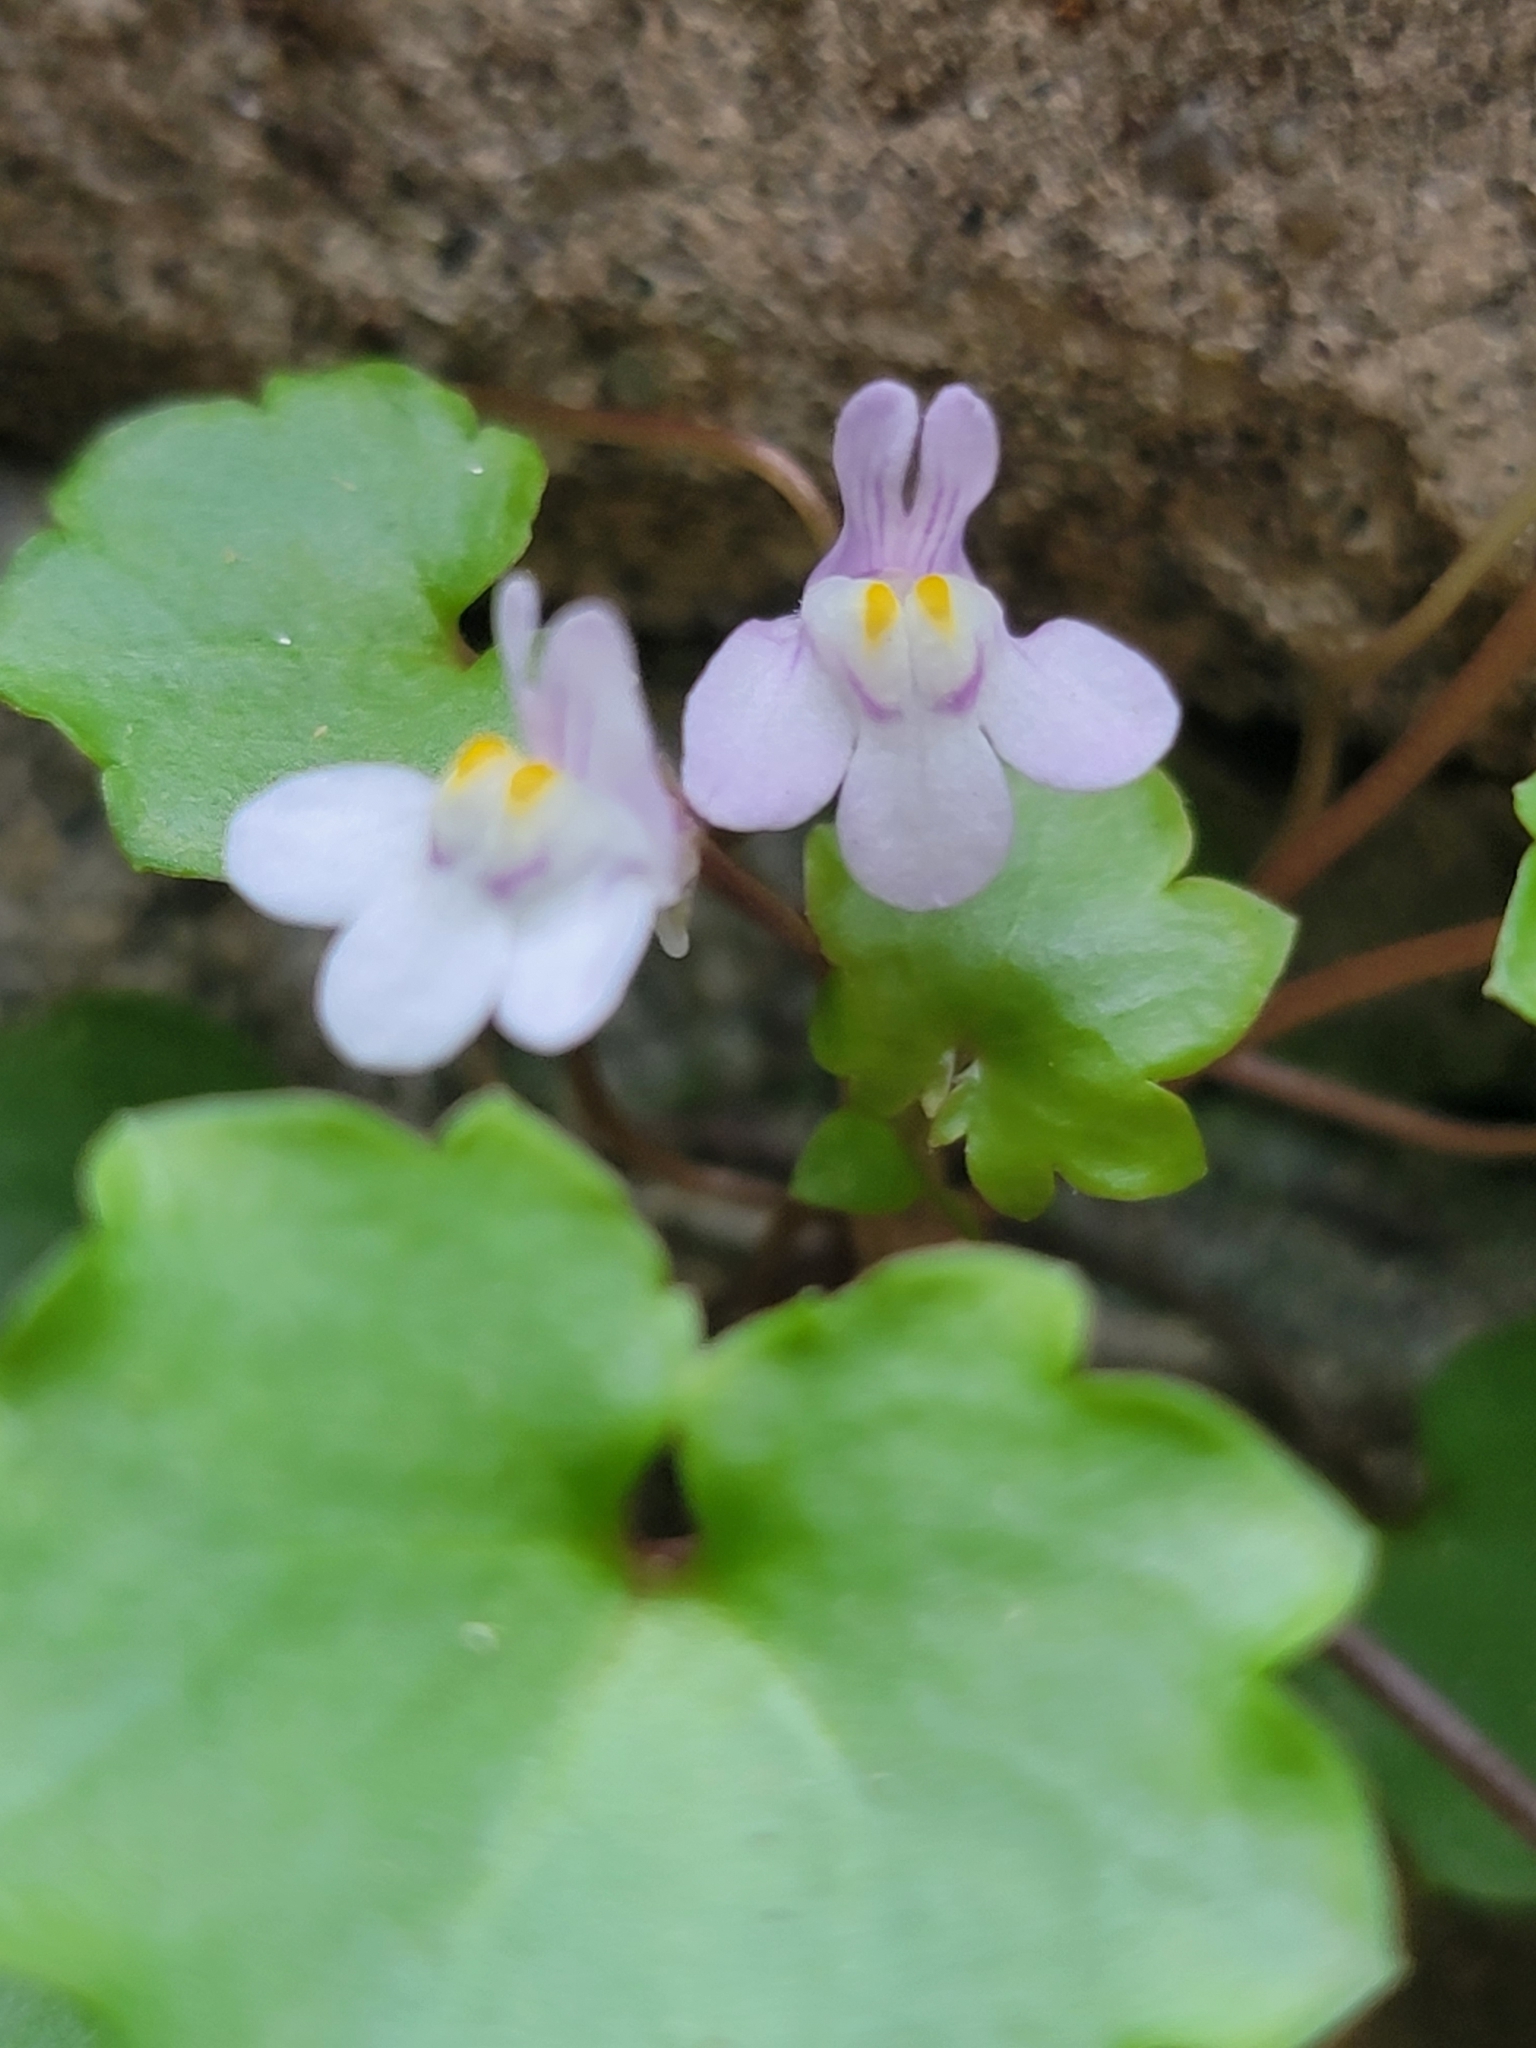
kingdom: Plantae
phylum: Tracheophyta
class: Magnoliopsida
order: Lamiales
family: Plantaginaceae
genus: Cymbalaria
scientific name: Cymbalaria muralis
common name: Ivy-leaved toadflax
